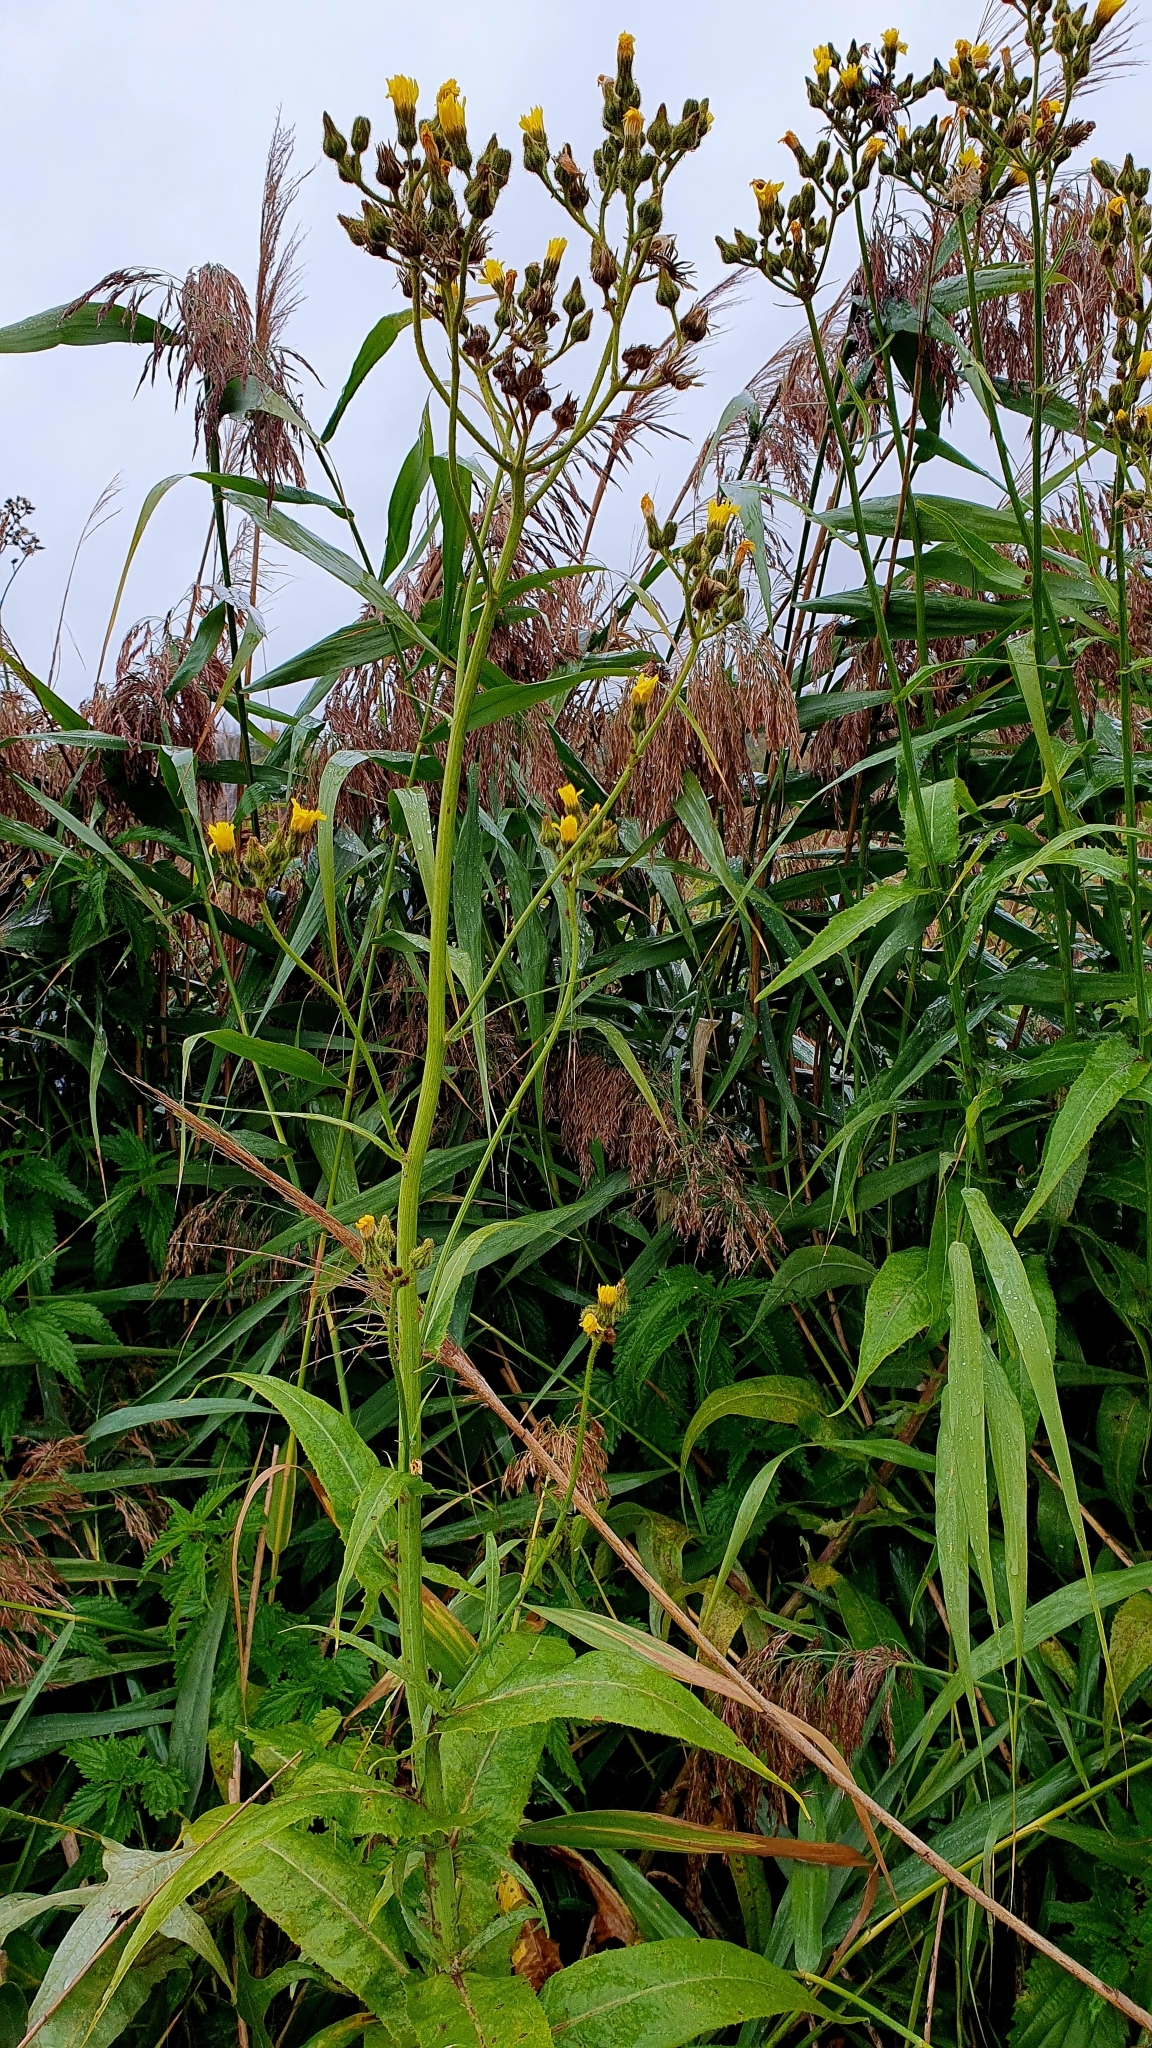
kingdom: Plantae
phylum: Tracheophyta
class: Magnoliopsida
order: Asterales
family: Asteraceae
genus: Sonchus
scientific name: Sonchus palustris
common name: Marsh sow-thistle
